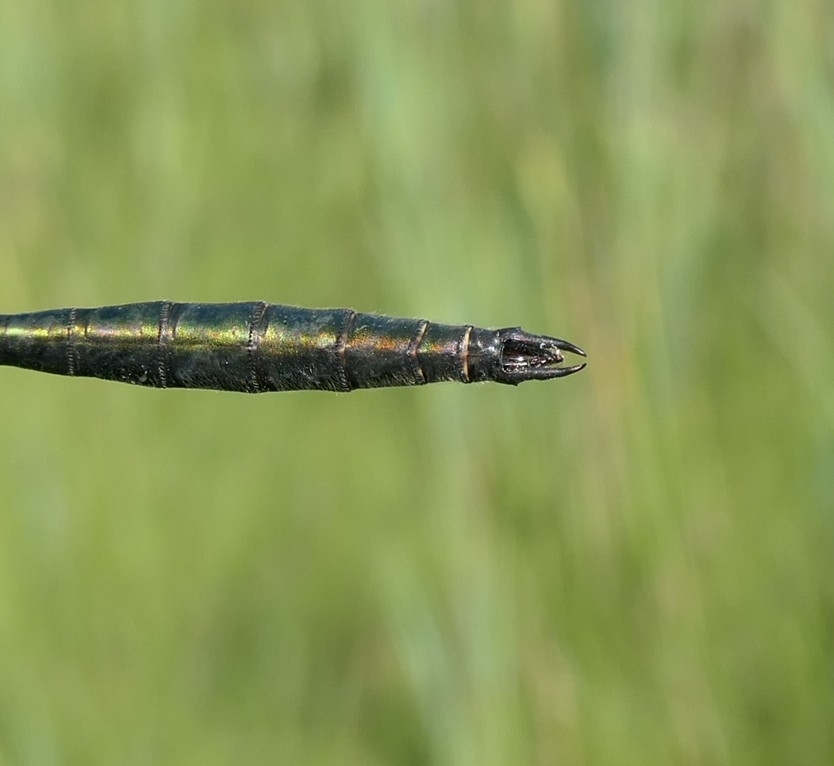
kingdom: Animalia
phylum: Arthropoda
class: Insecta
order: Odonata
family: Corduliidae
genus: Somatochlora
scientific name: Somatochlora metallica
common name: Brilliant emerald
